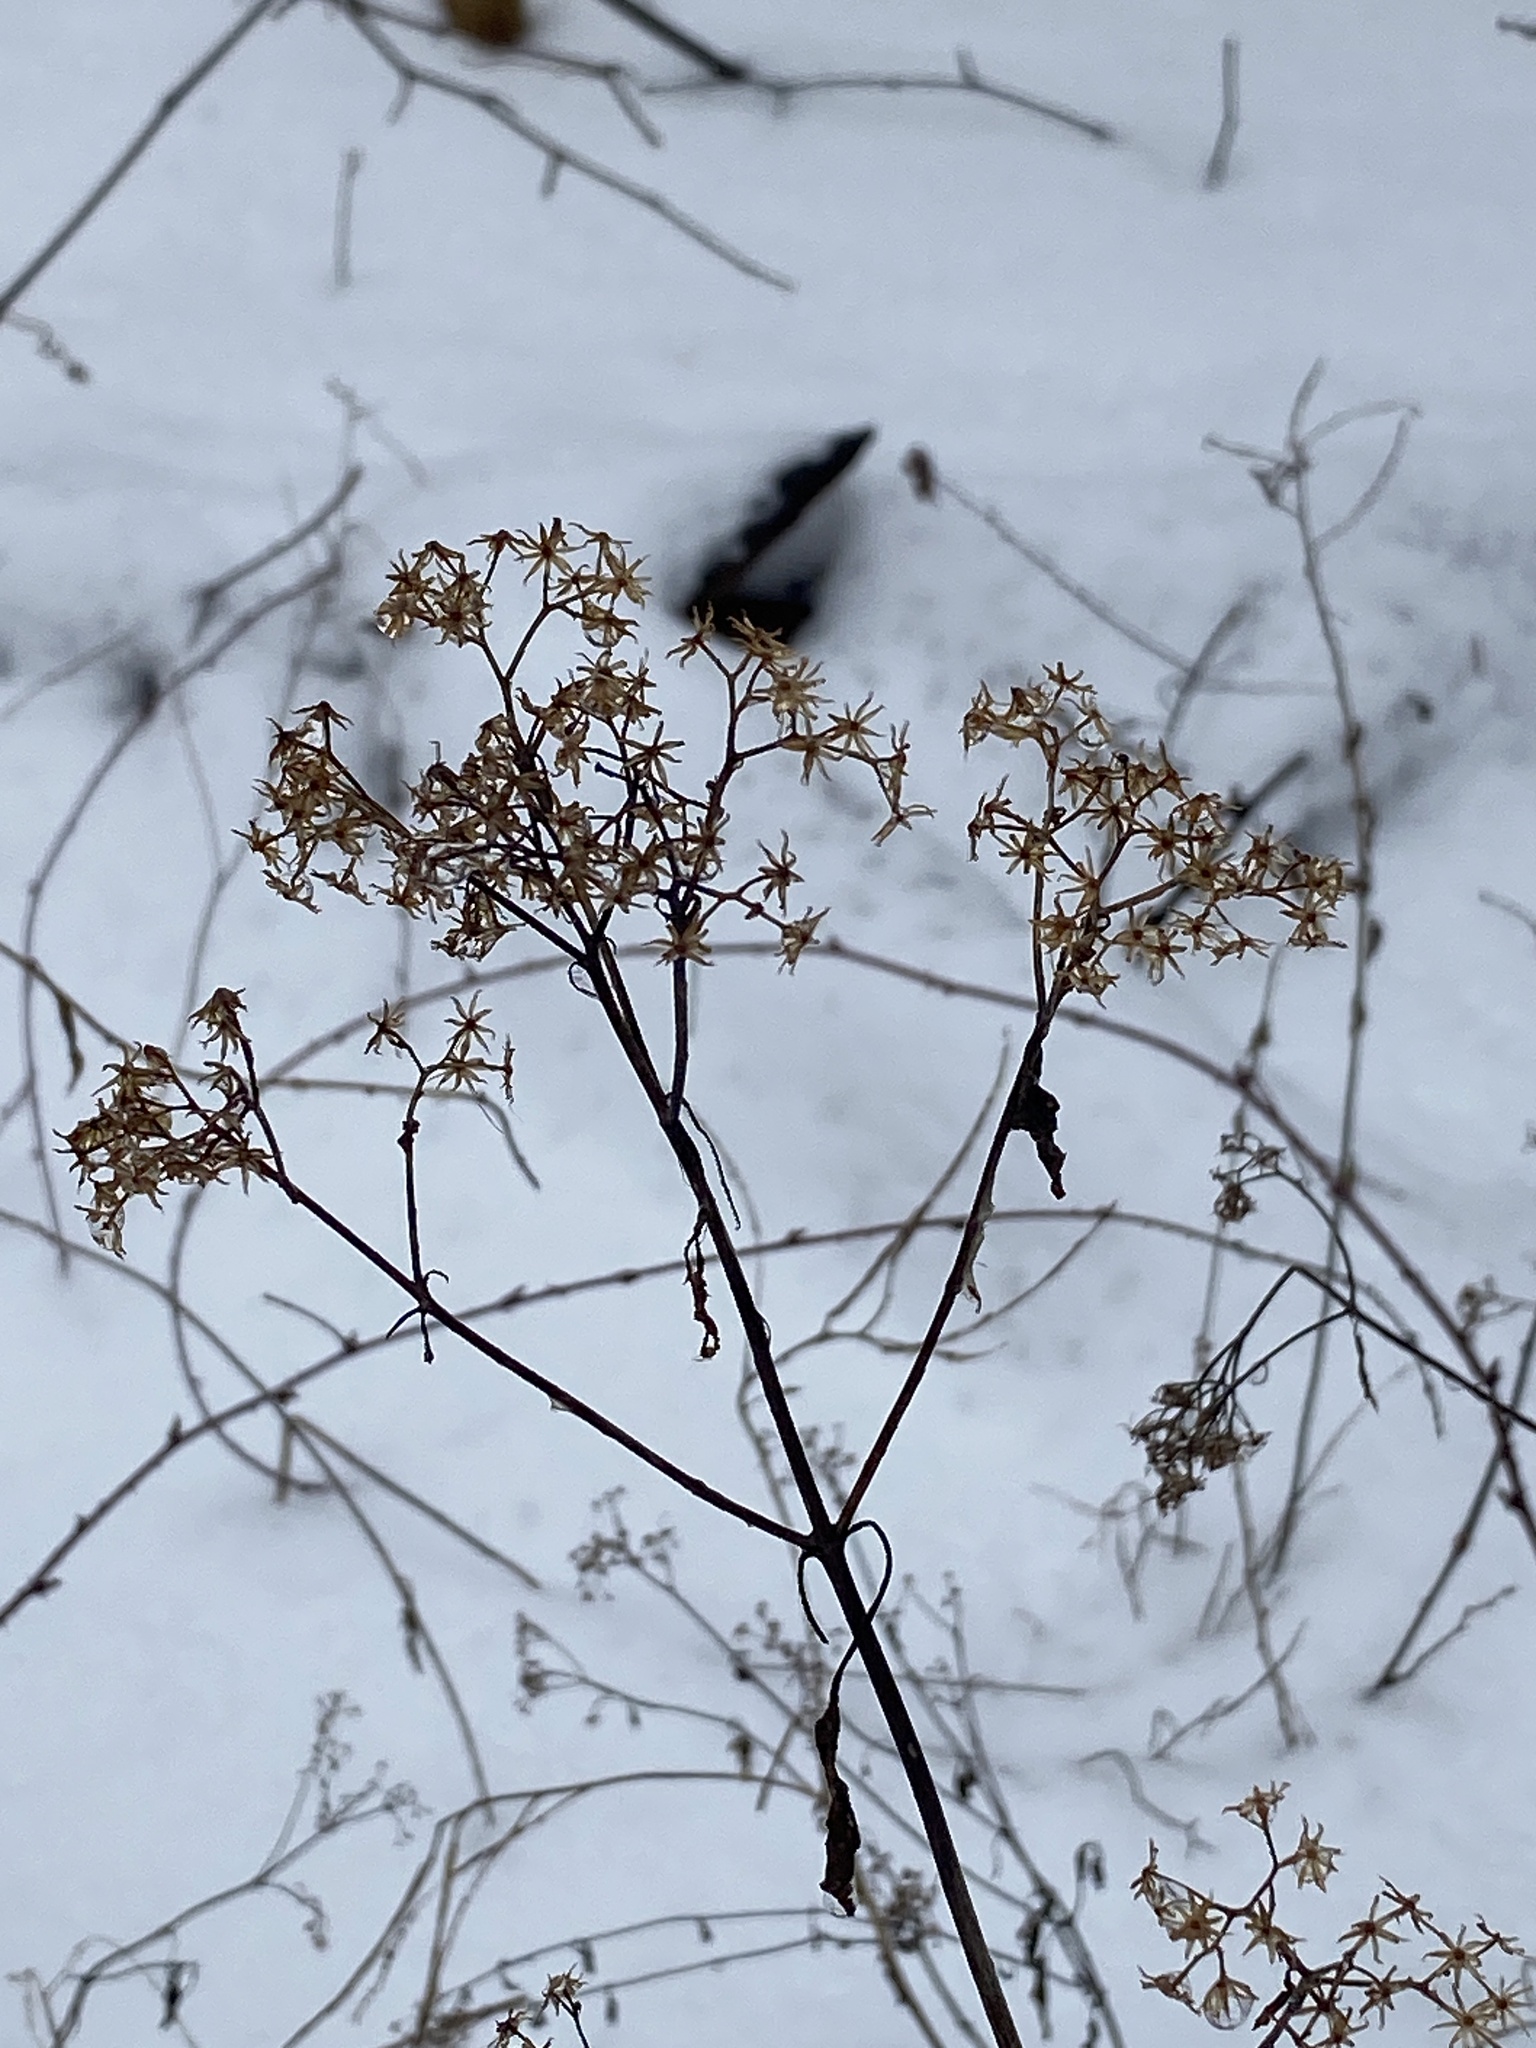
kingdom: Plantae
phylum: Tracheophyta
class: Magnoliopsida
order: Asterales
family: Asteraceae
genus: Euthamia
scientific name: Euthamia graminifolia
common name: Common goldentop
